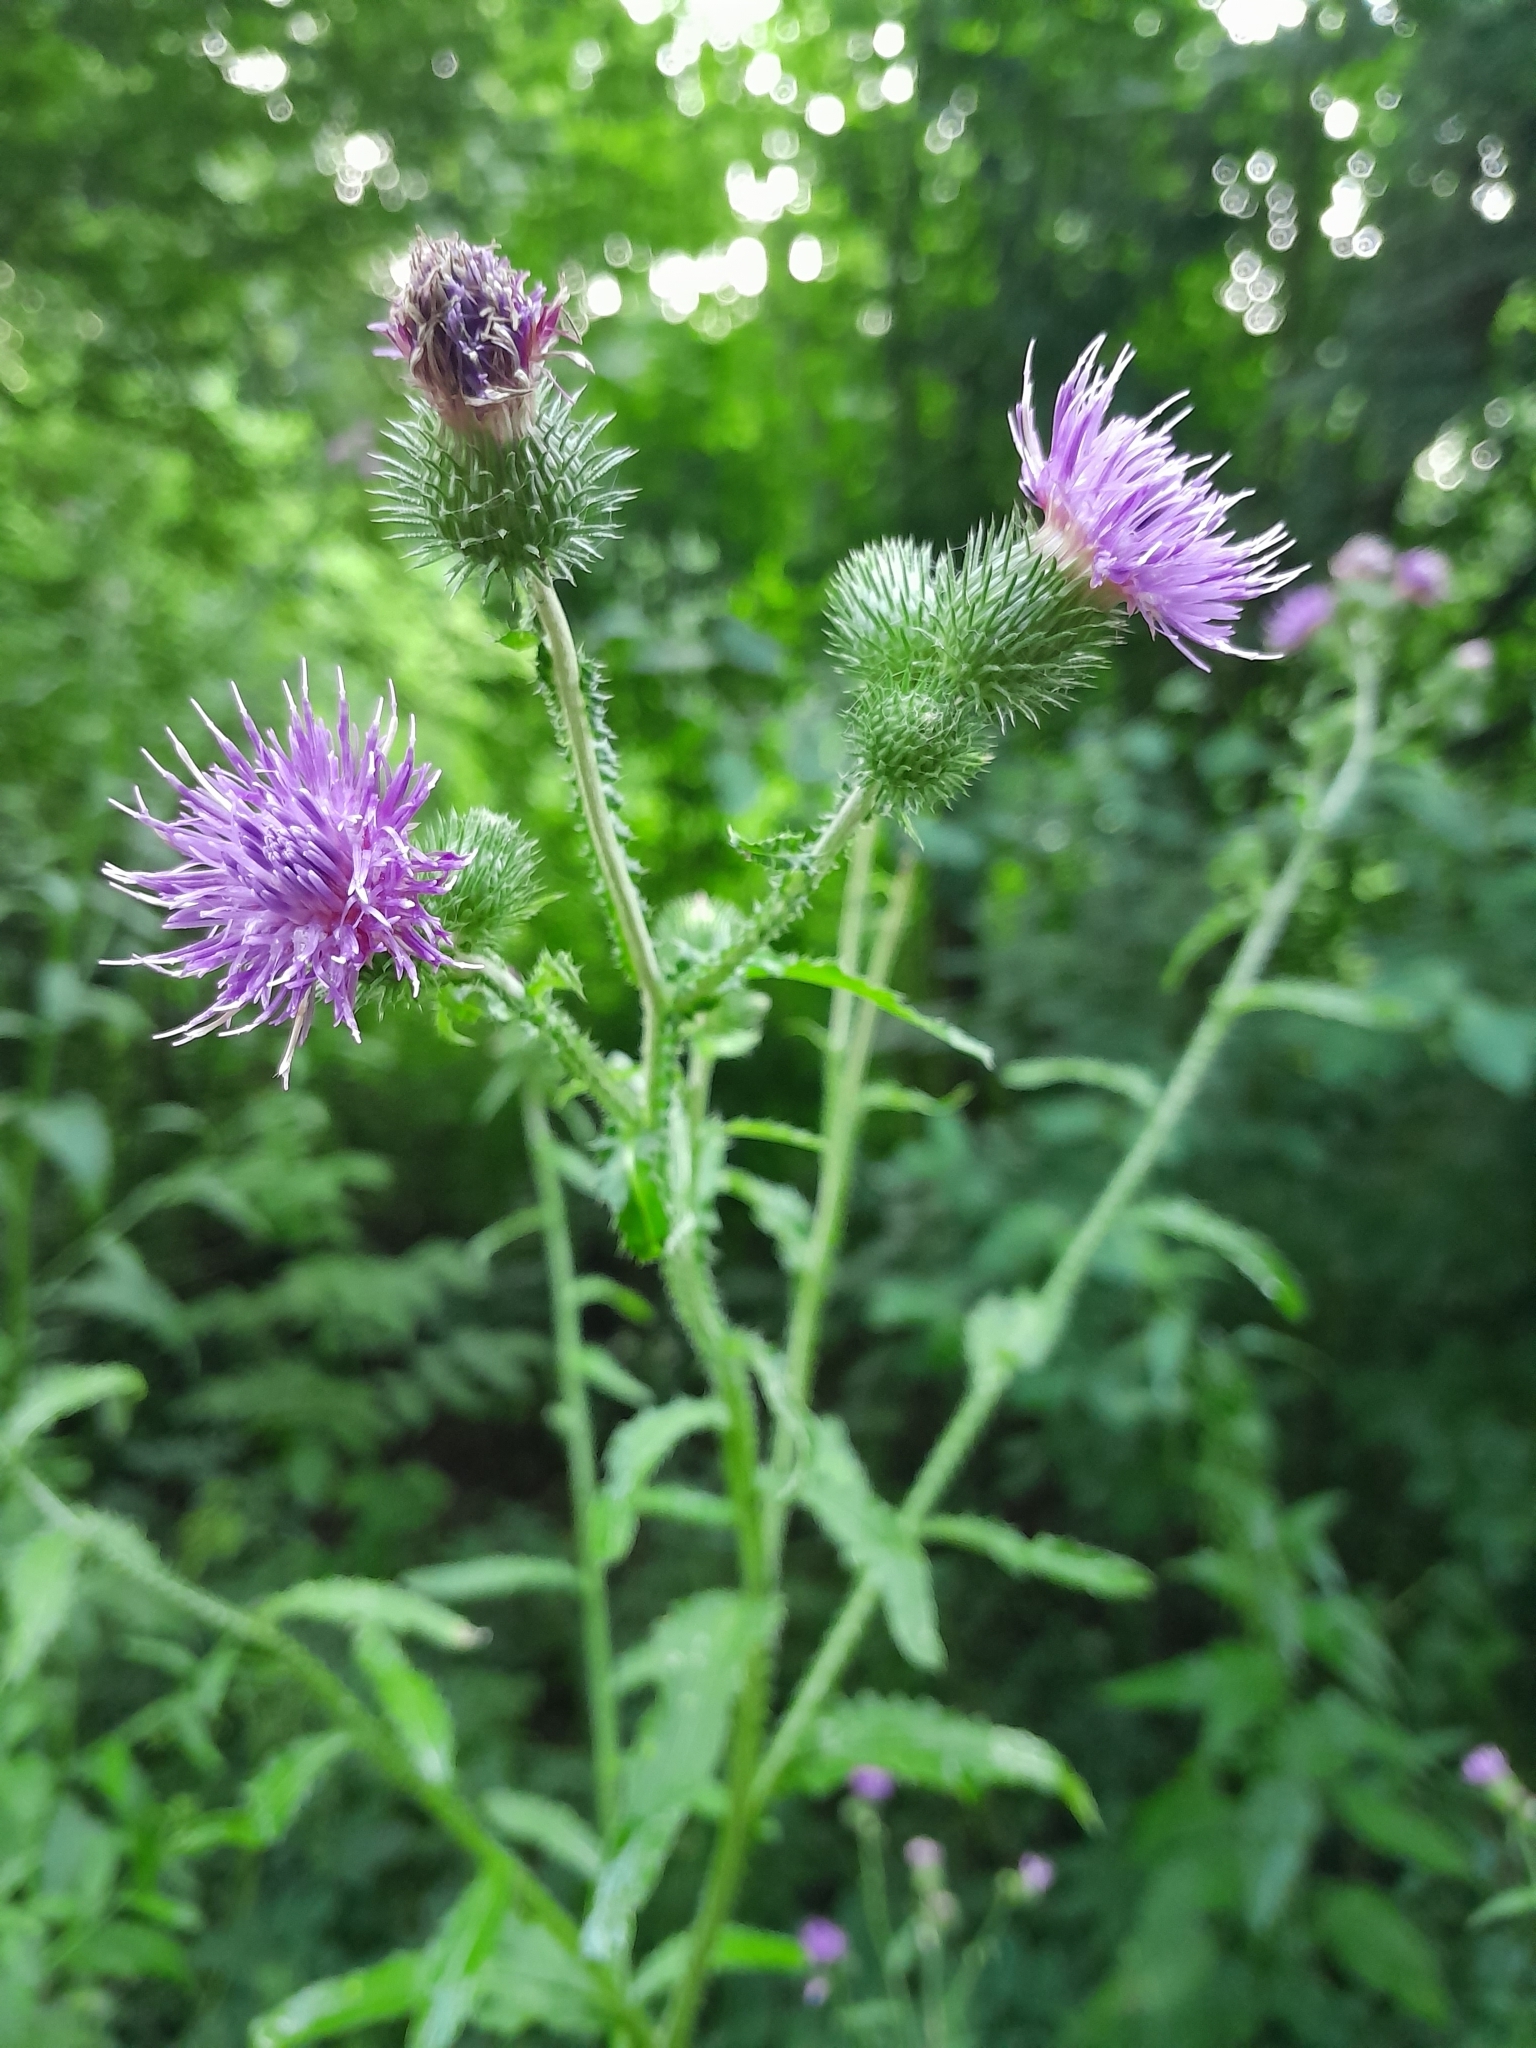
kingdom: Plantae
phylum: Tracheophyta
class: Magnoliopsida
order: Asterales
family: Asteraceae
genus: Carduus
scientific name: Carduus crispus
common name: Welted thistle
